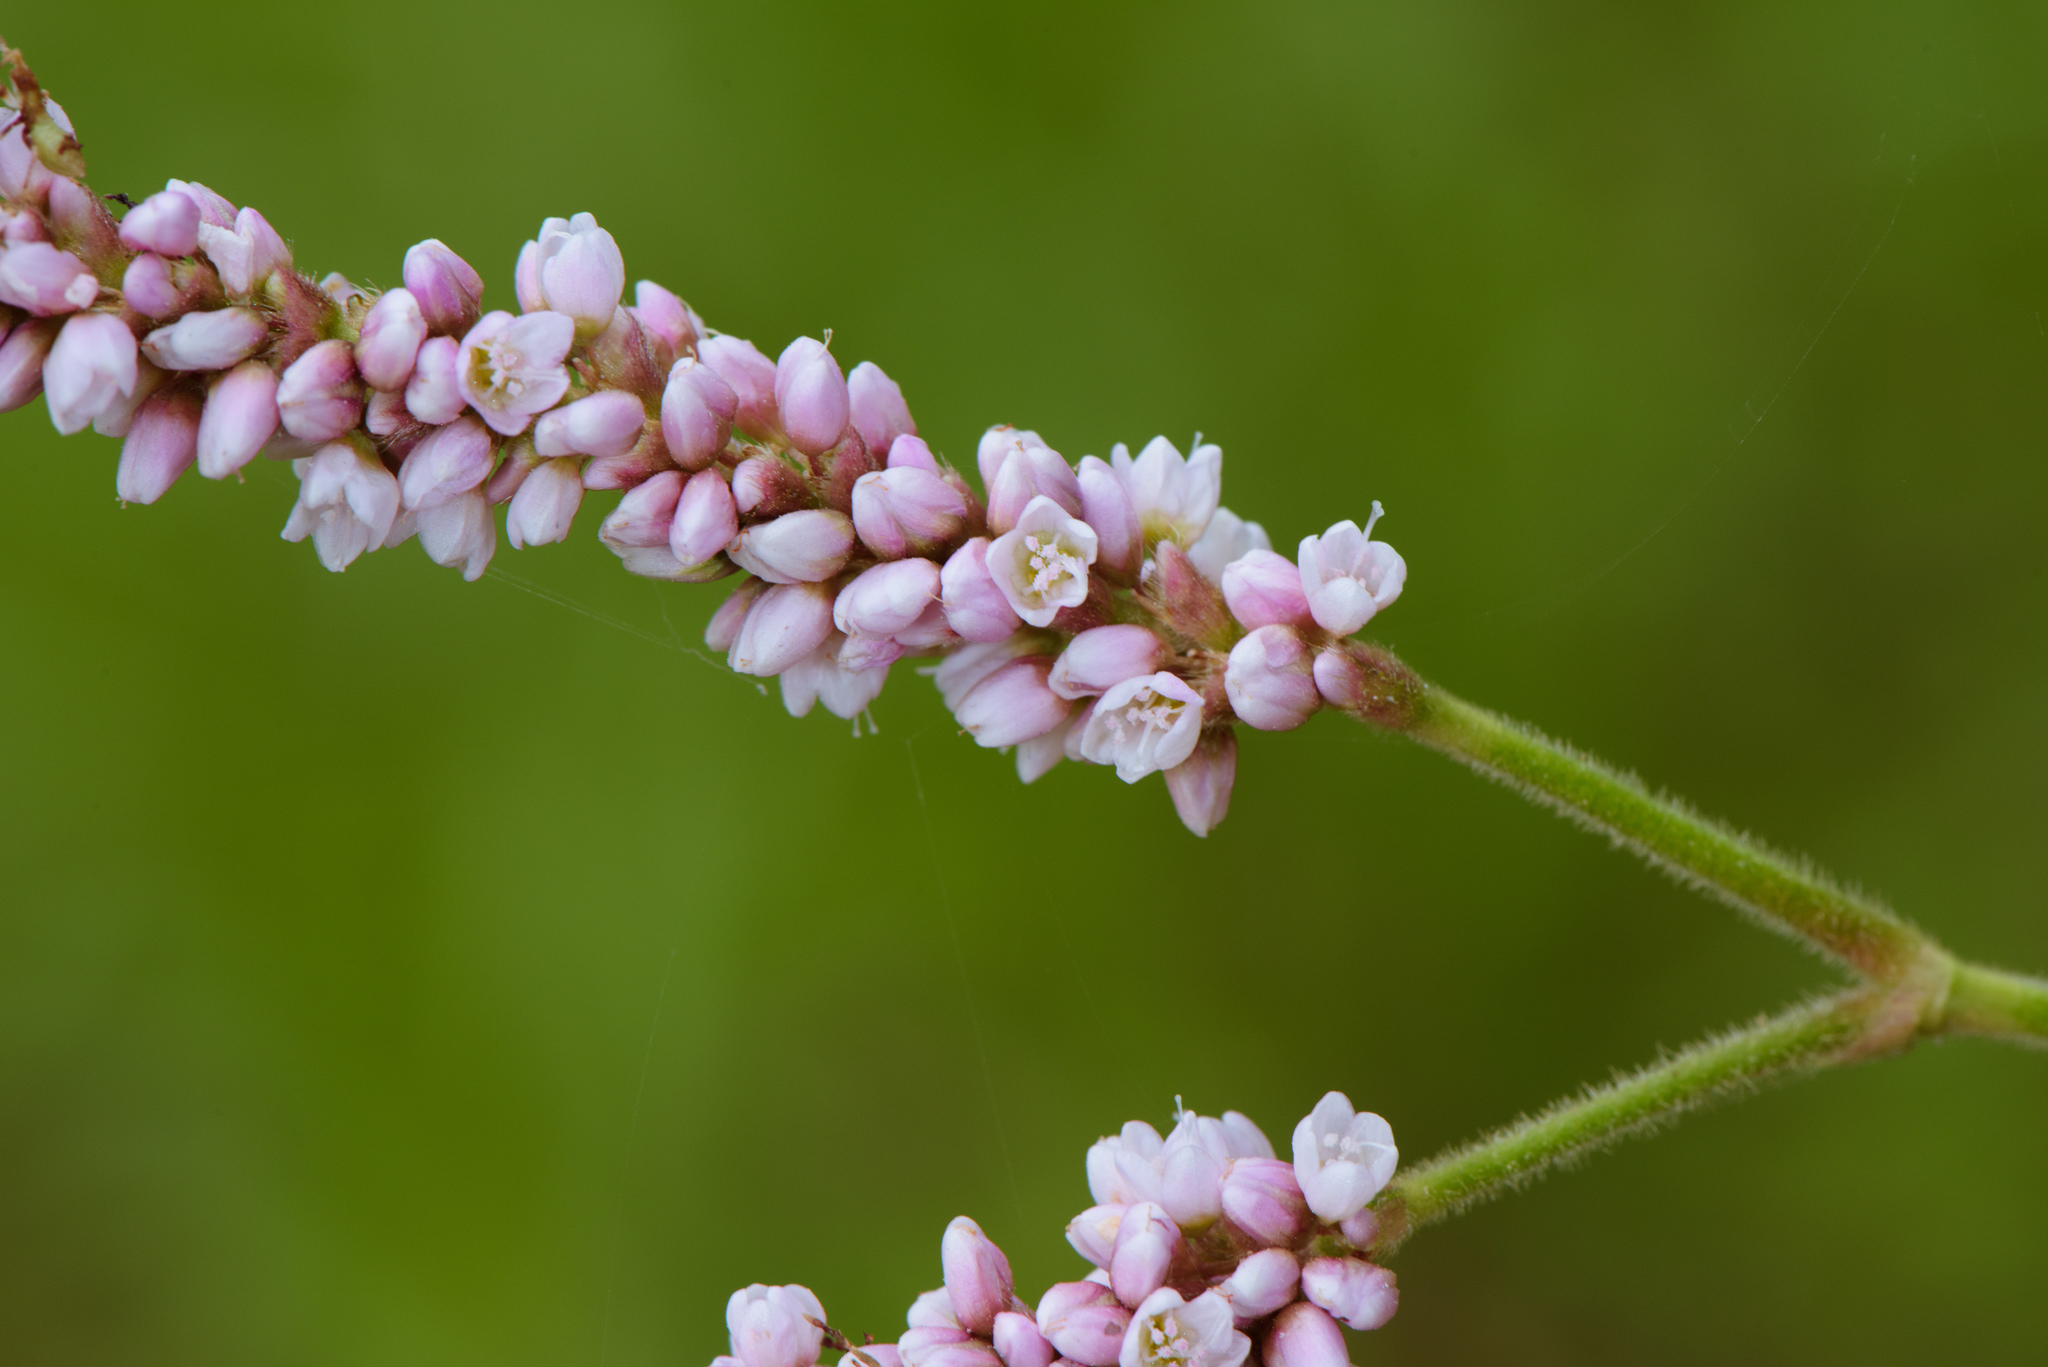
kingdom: Plantae
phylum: Tracheophyta
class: Magnoliopsida
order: Caryophyllales
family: Polygonaceae
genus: Persicaria
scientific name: Persicaria orientalis
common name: Kiss-me-over-the-garden-gate
